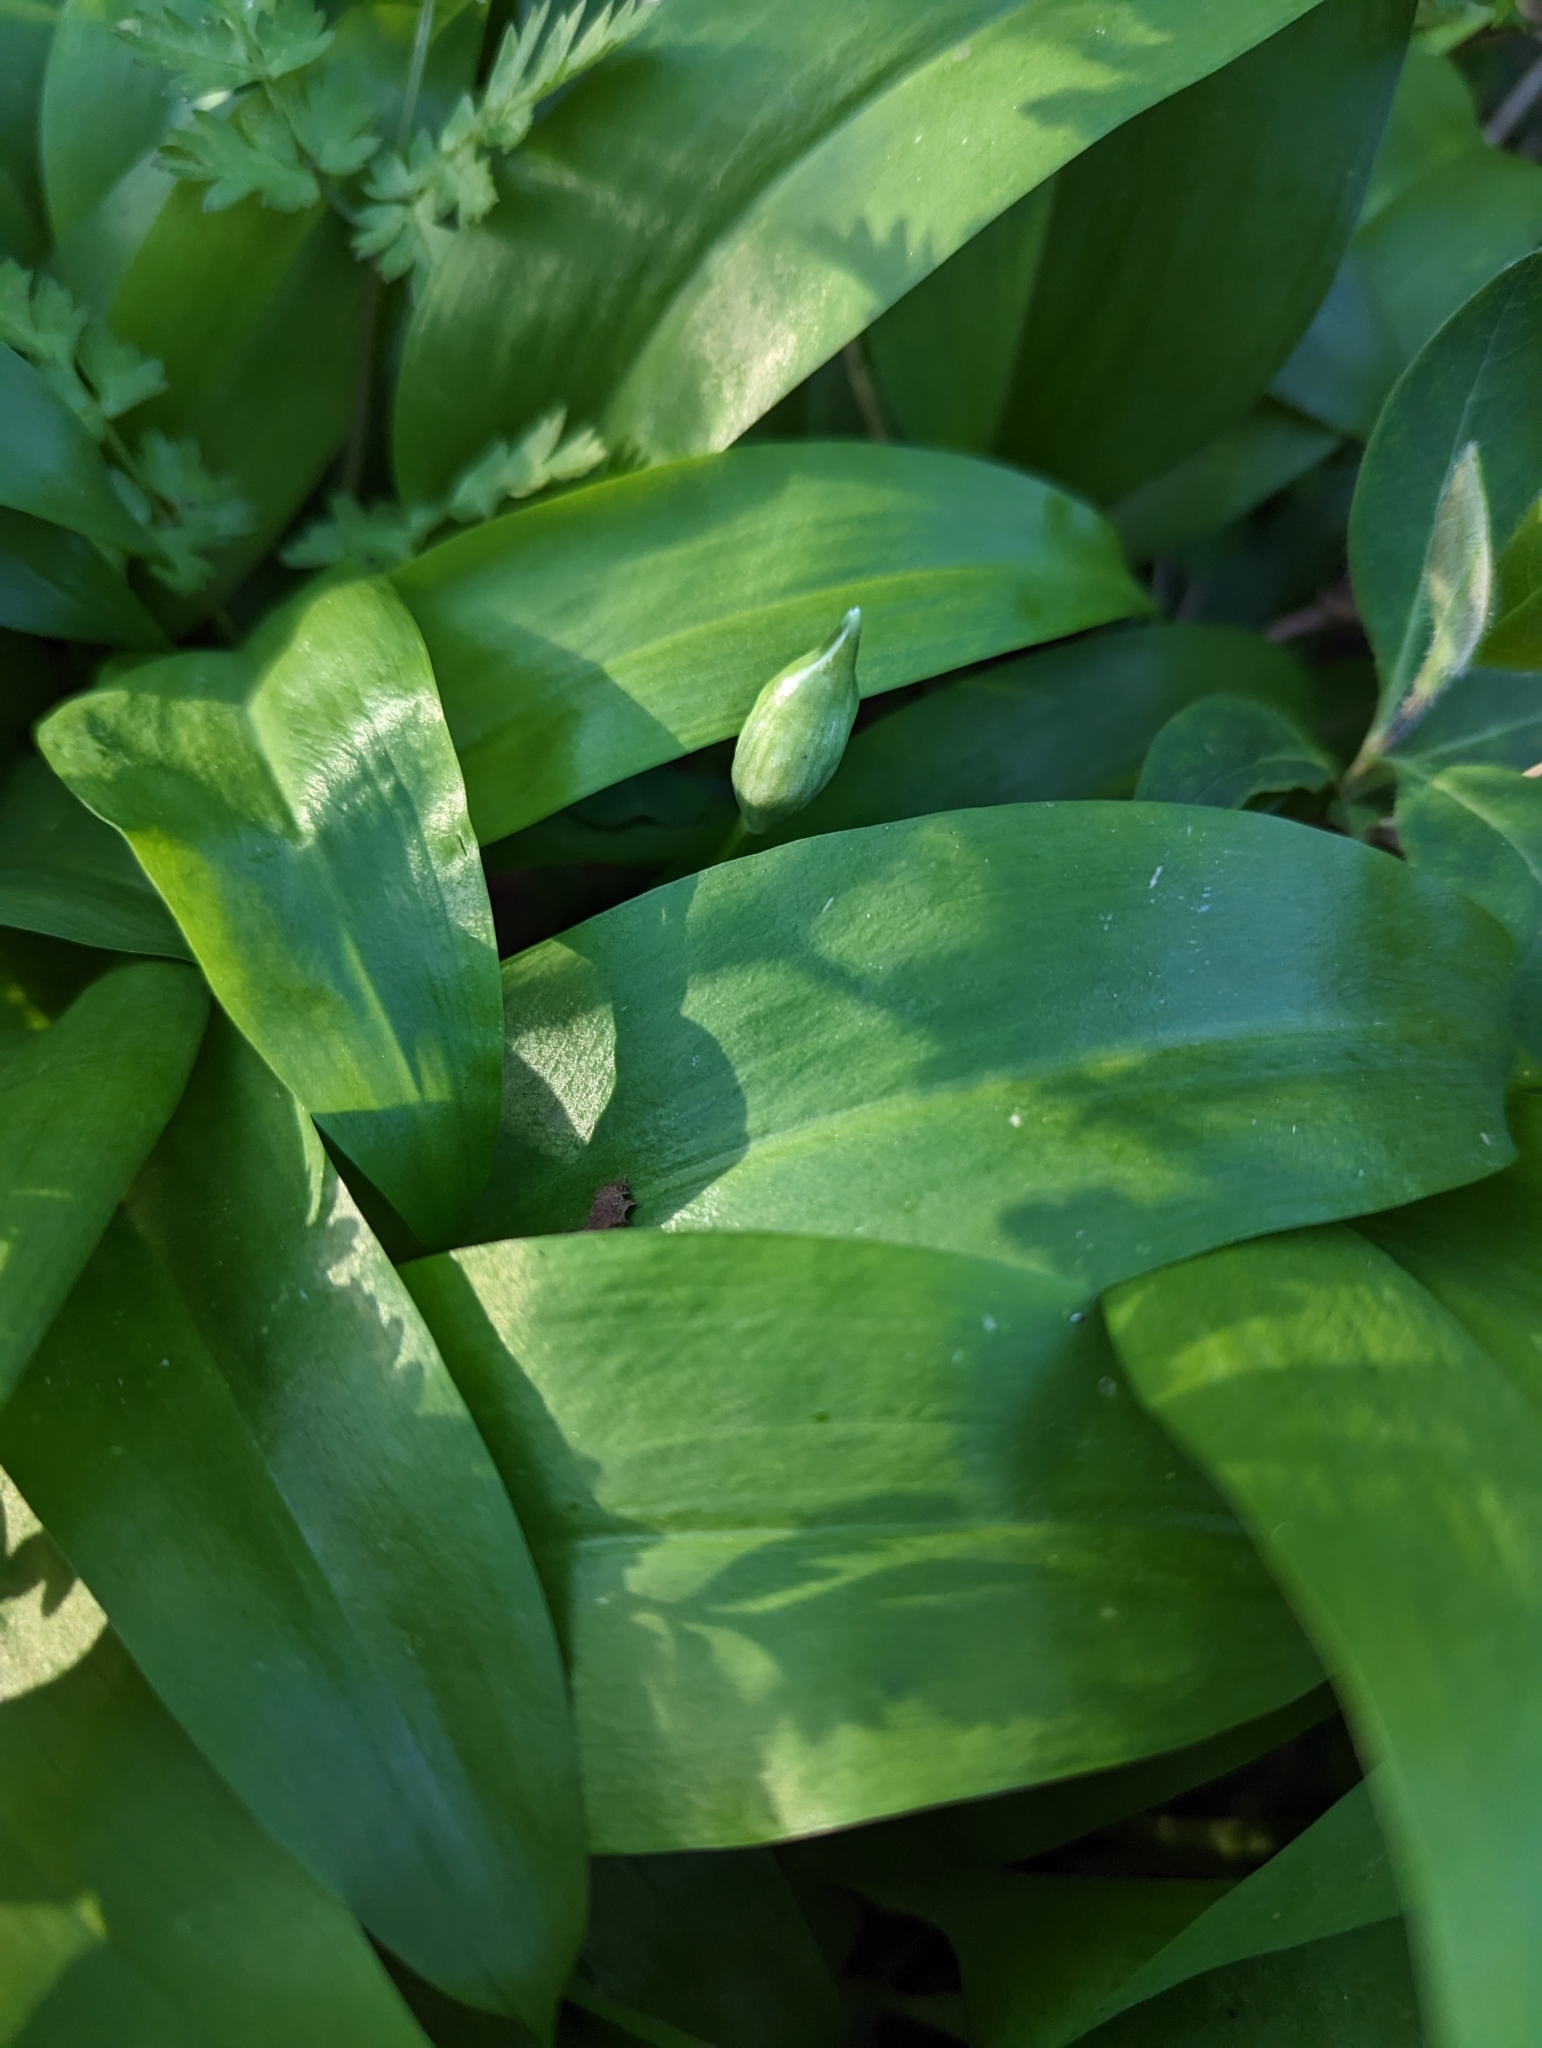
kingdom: Plantae
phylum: Tracheophyta
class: Liliopsida
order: Asparagales
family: Amaryllidaceae
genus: Allium
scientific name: Allium ursinum
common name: Ramsons
